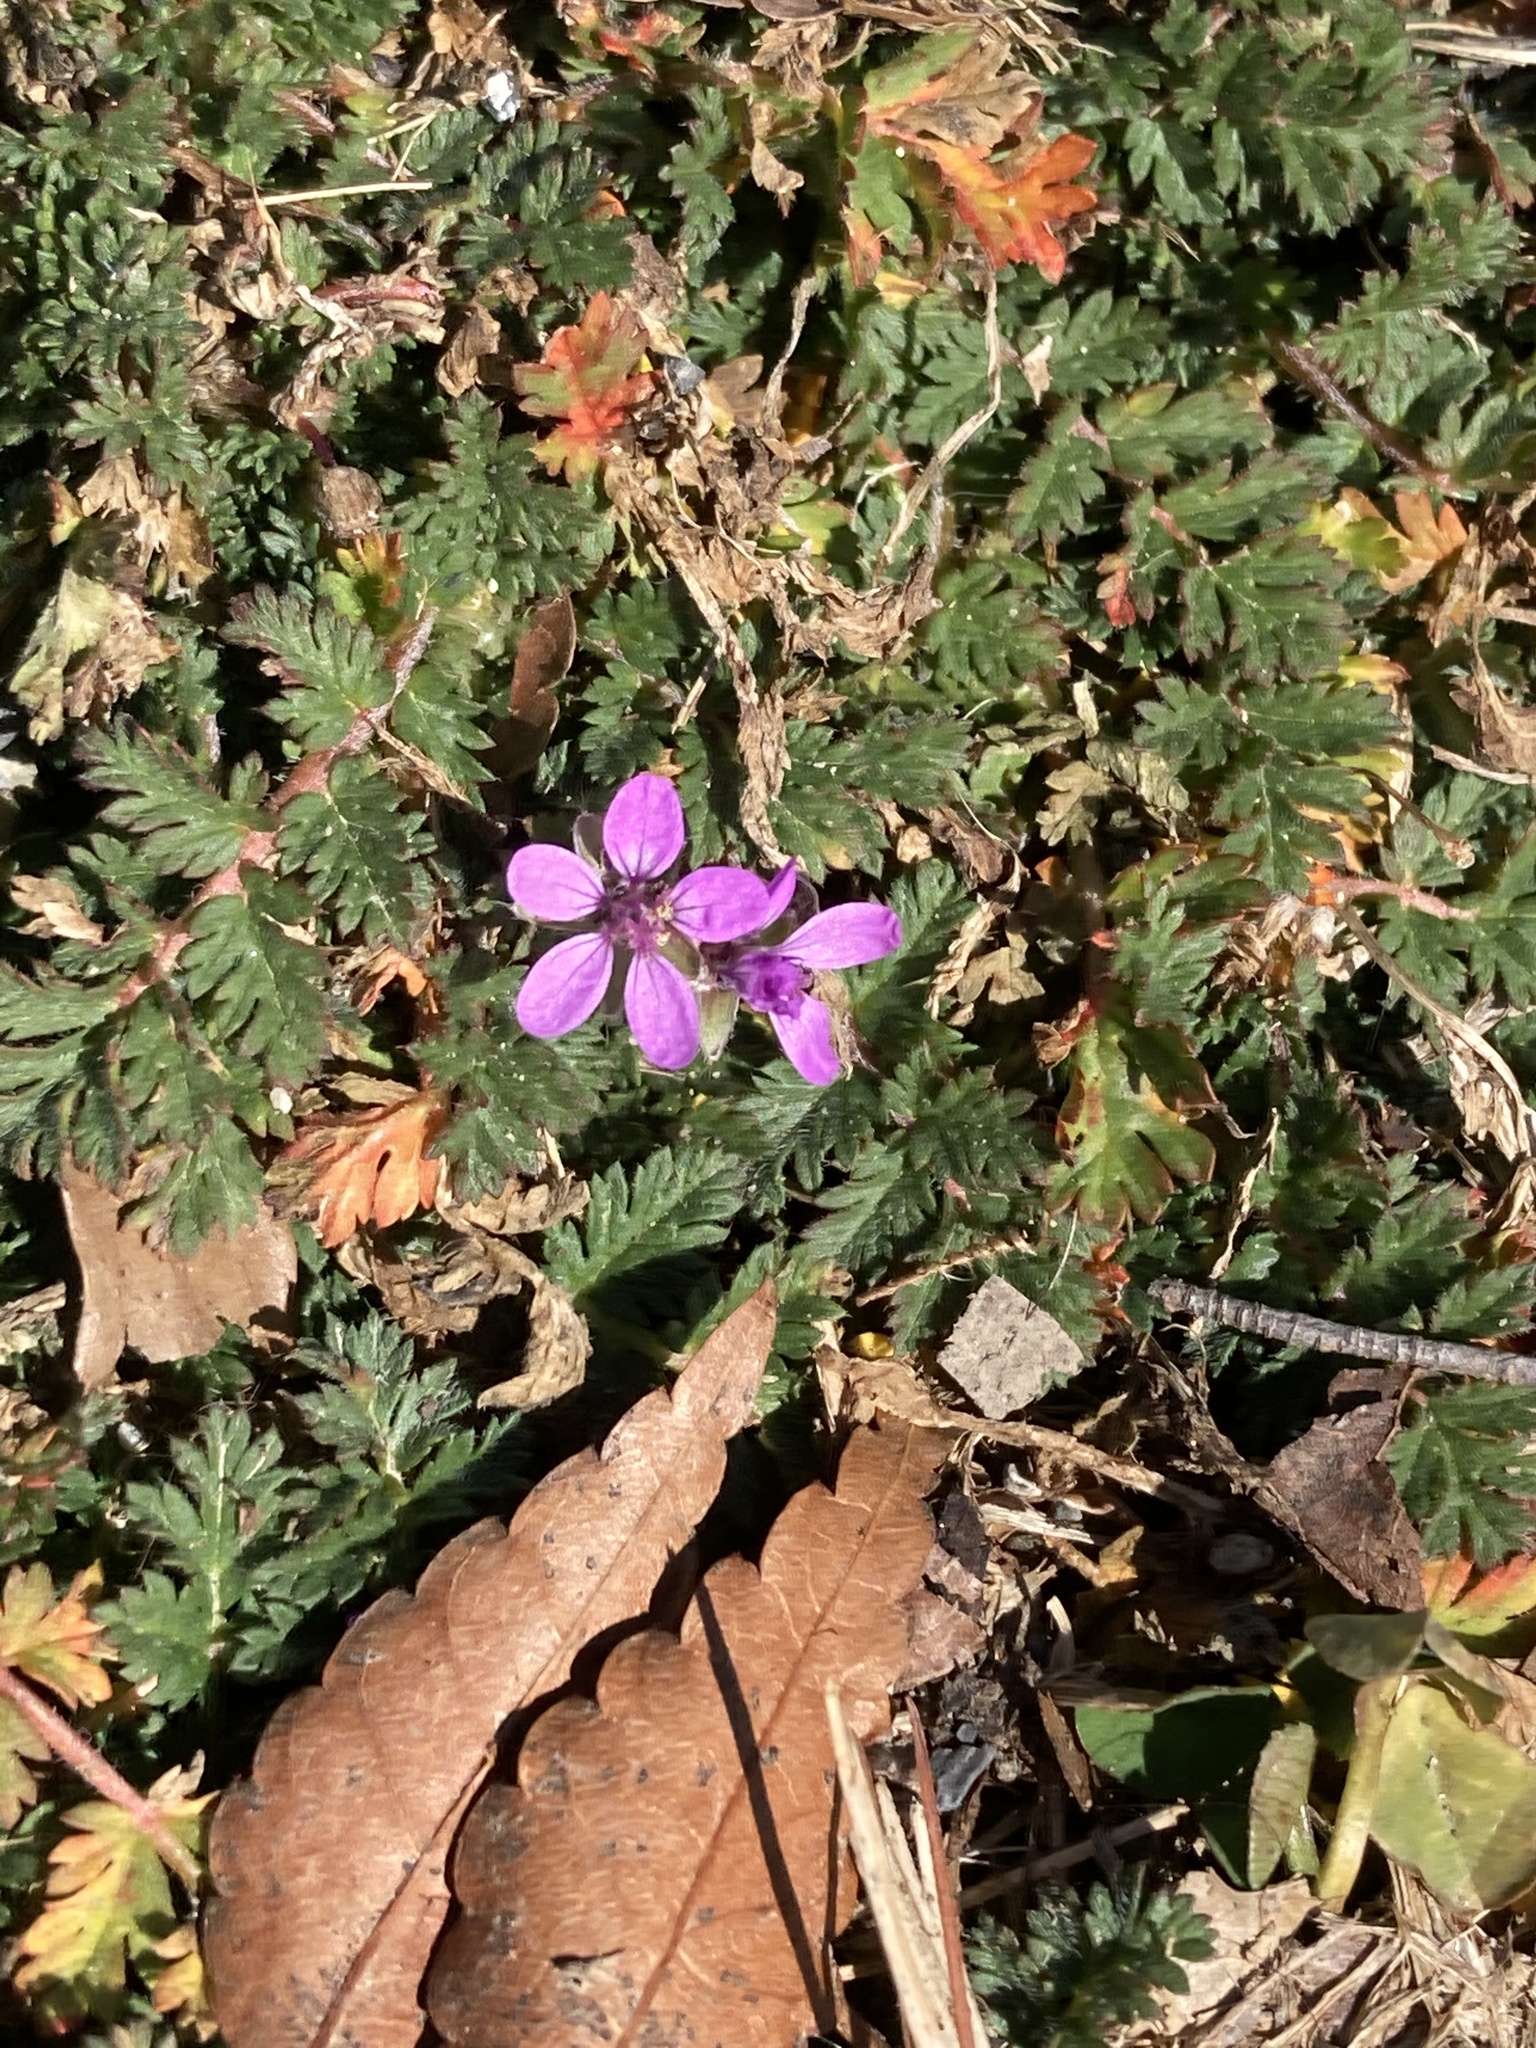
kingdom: Plantae
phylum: Tracheophyta
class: Magnoliopsida
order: Geraniales
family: Geraniaceae
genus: Erodium
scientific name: Erodium cicutarium
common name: Common stork's-bill
